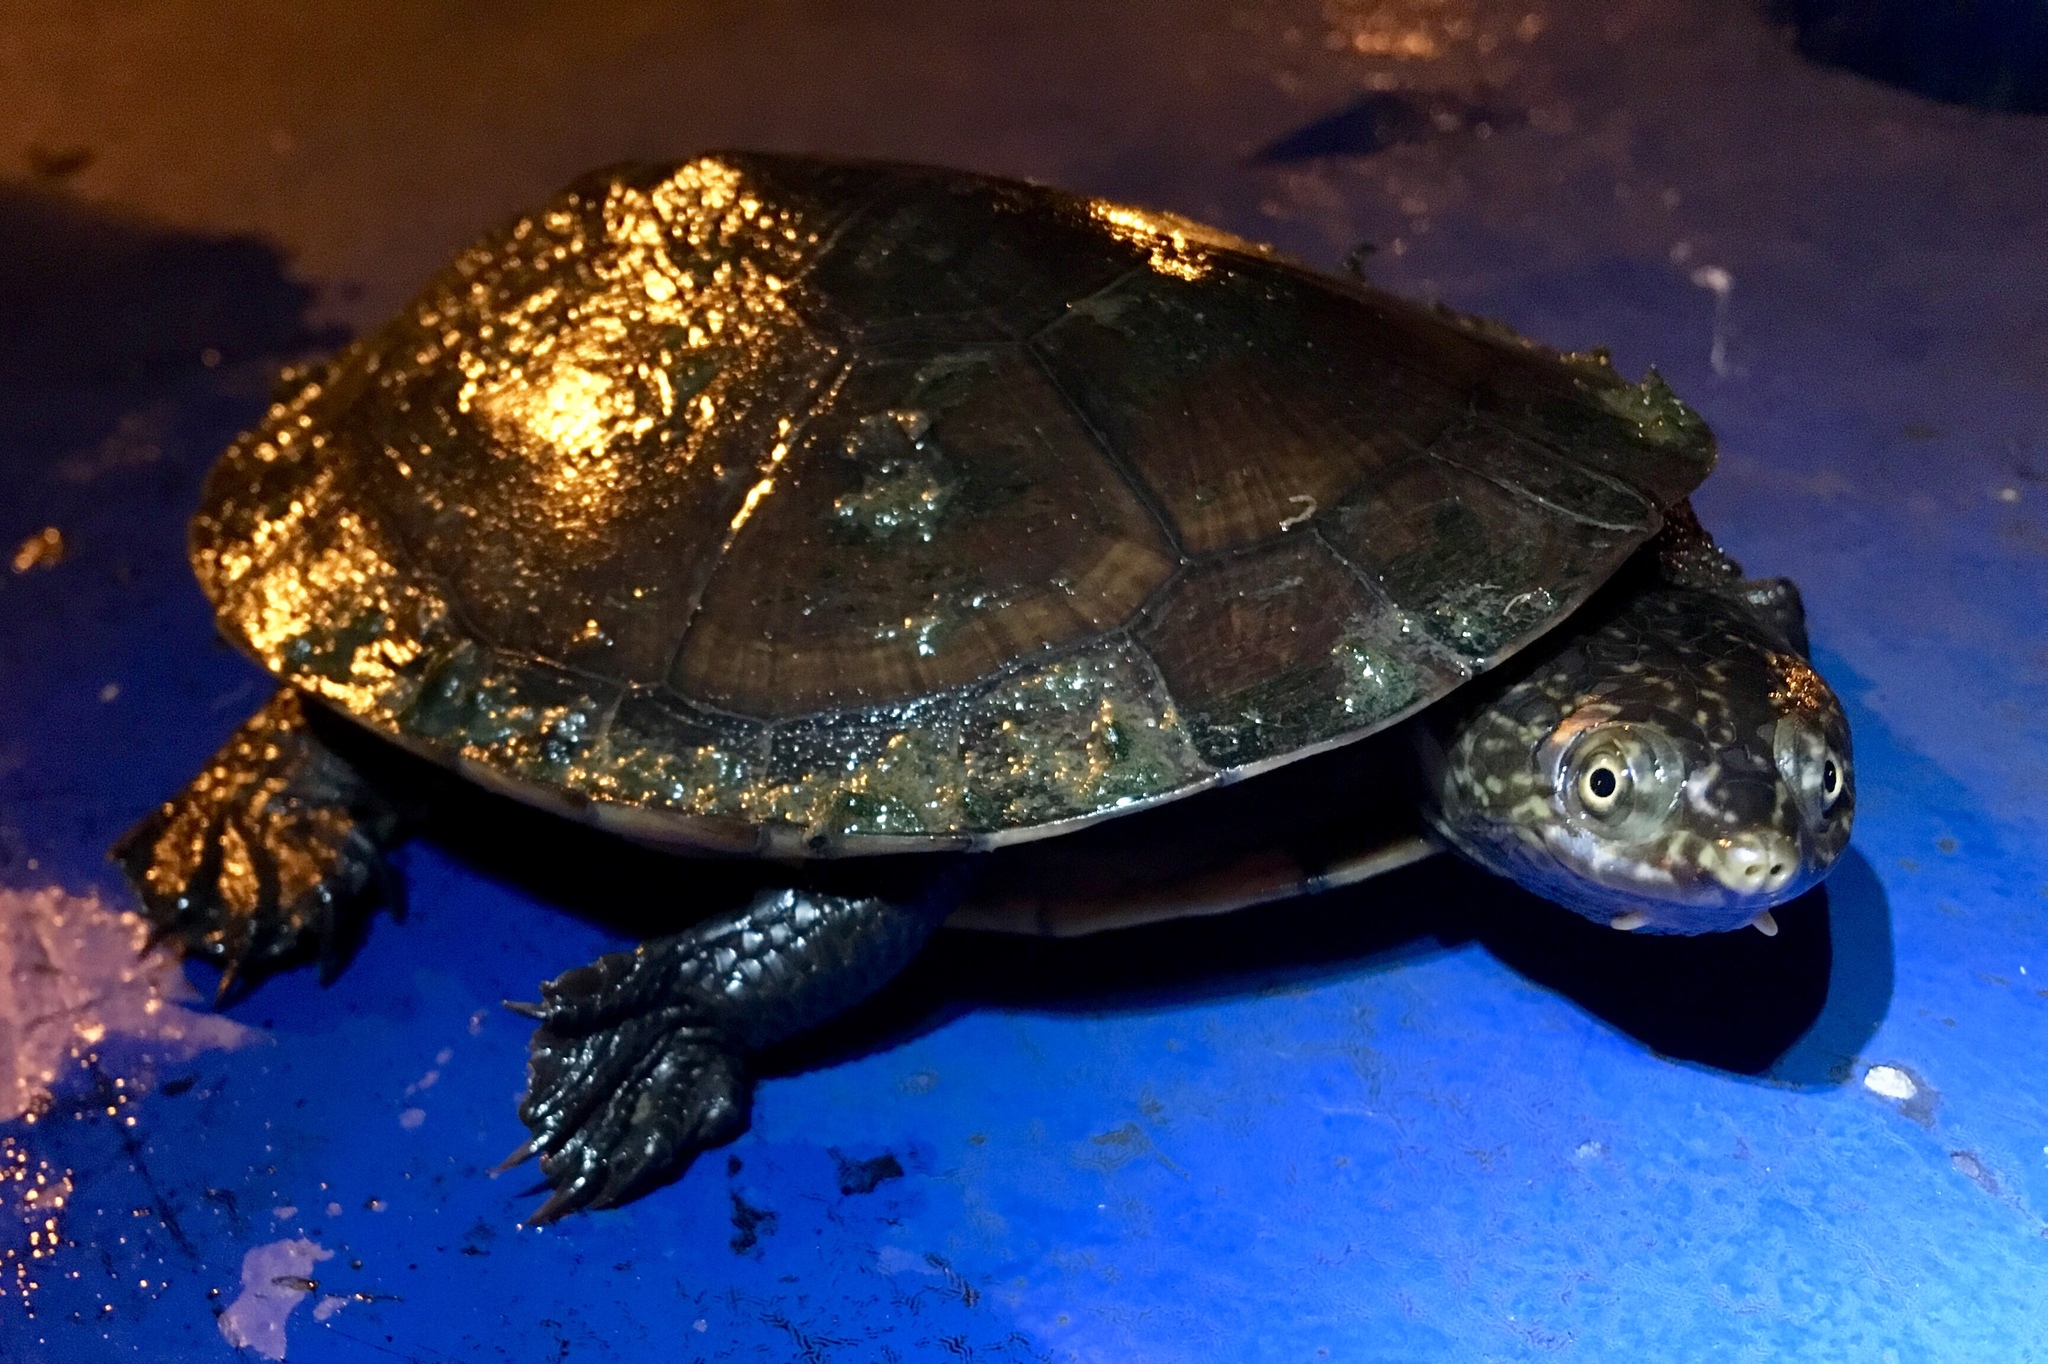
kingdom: Animalia
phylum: Chordata
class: Testudines
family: Chelidae
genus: Mesoclemmys
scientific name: Mesoclemmys gibba
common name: Gibba turtle
